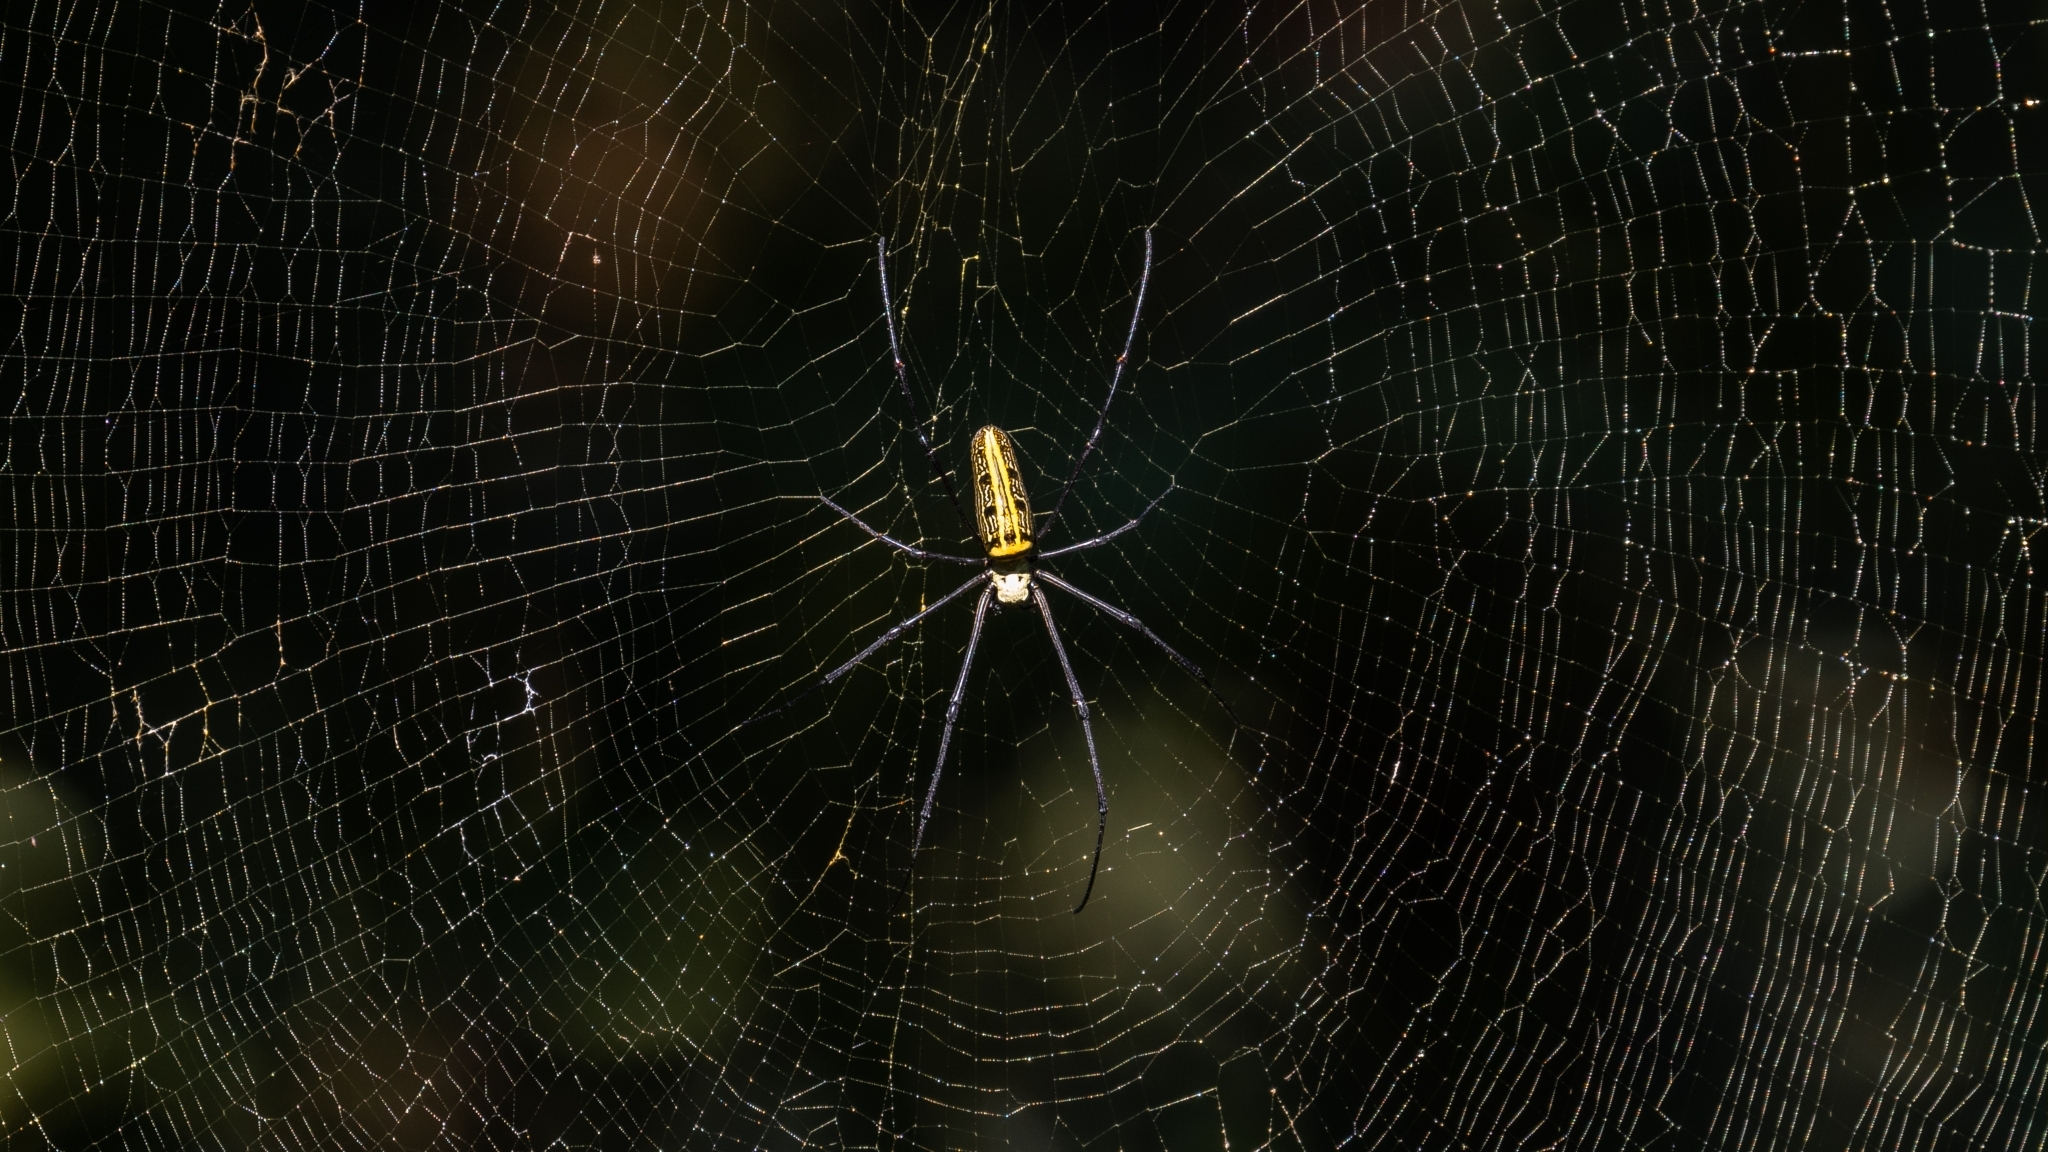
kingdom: Animalia
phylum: Arthropoda
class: Arachnida
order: Araneae
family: Araneidae
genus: Nephila
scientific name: Nephila pilipes
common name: Giant golden orb weaver
